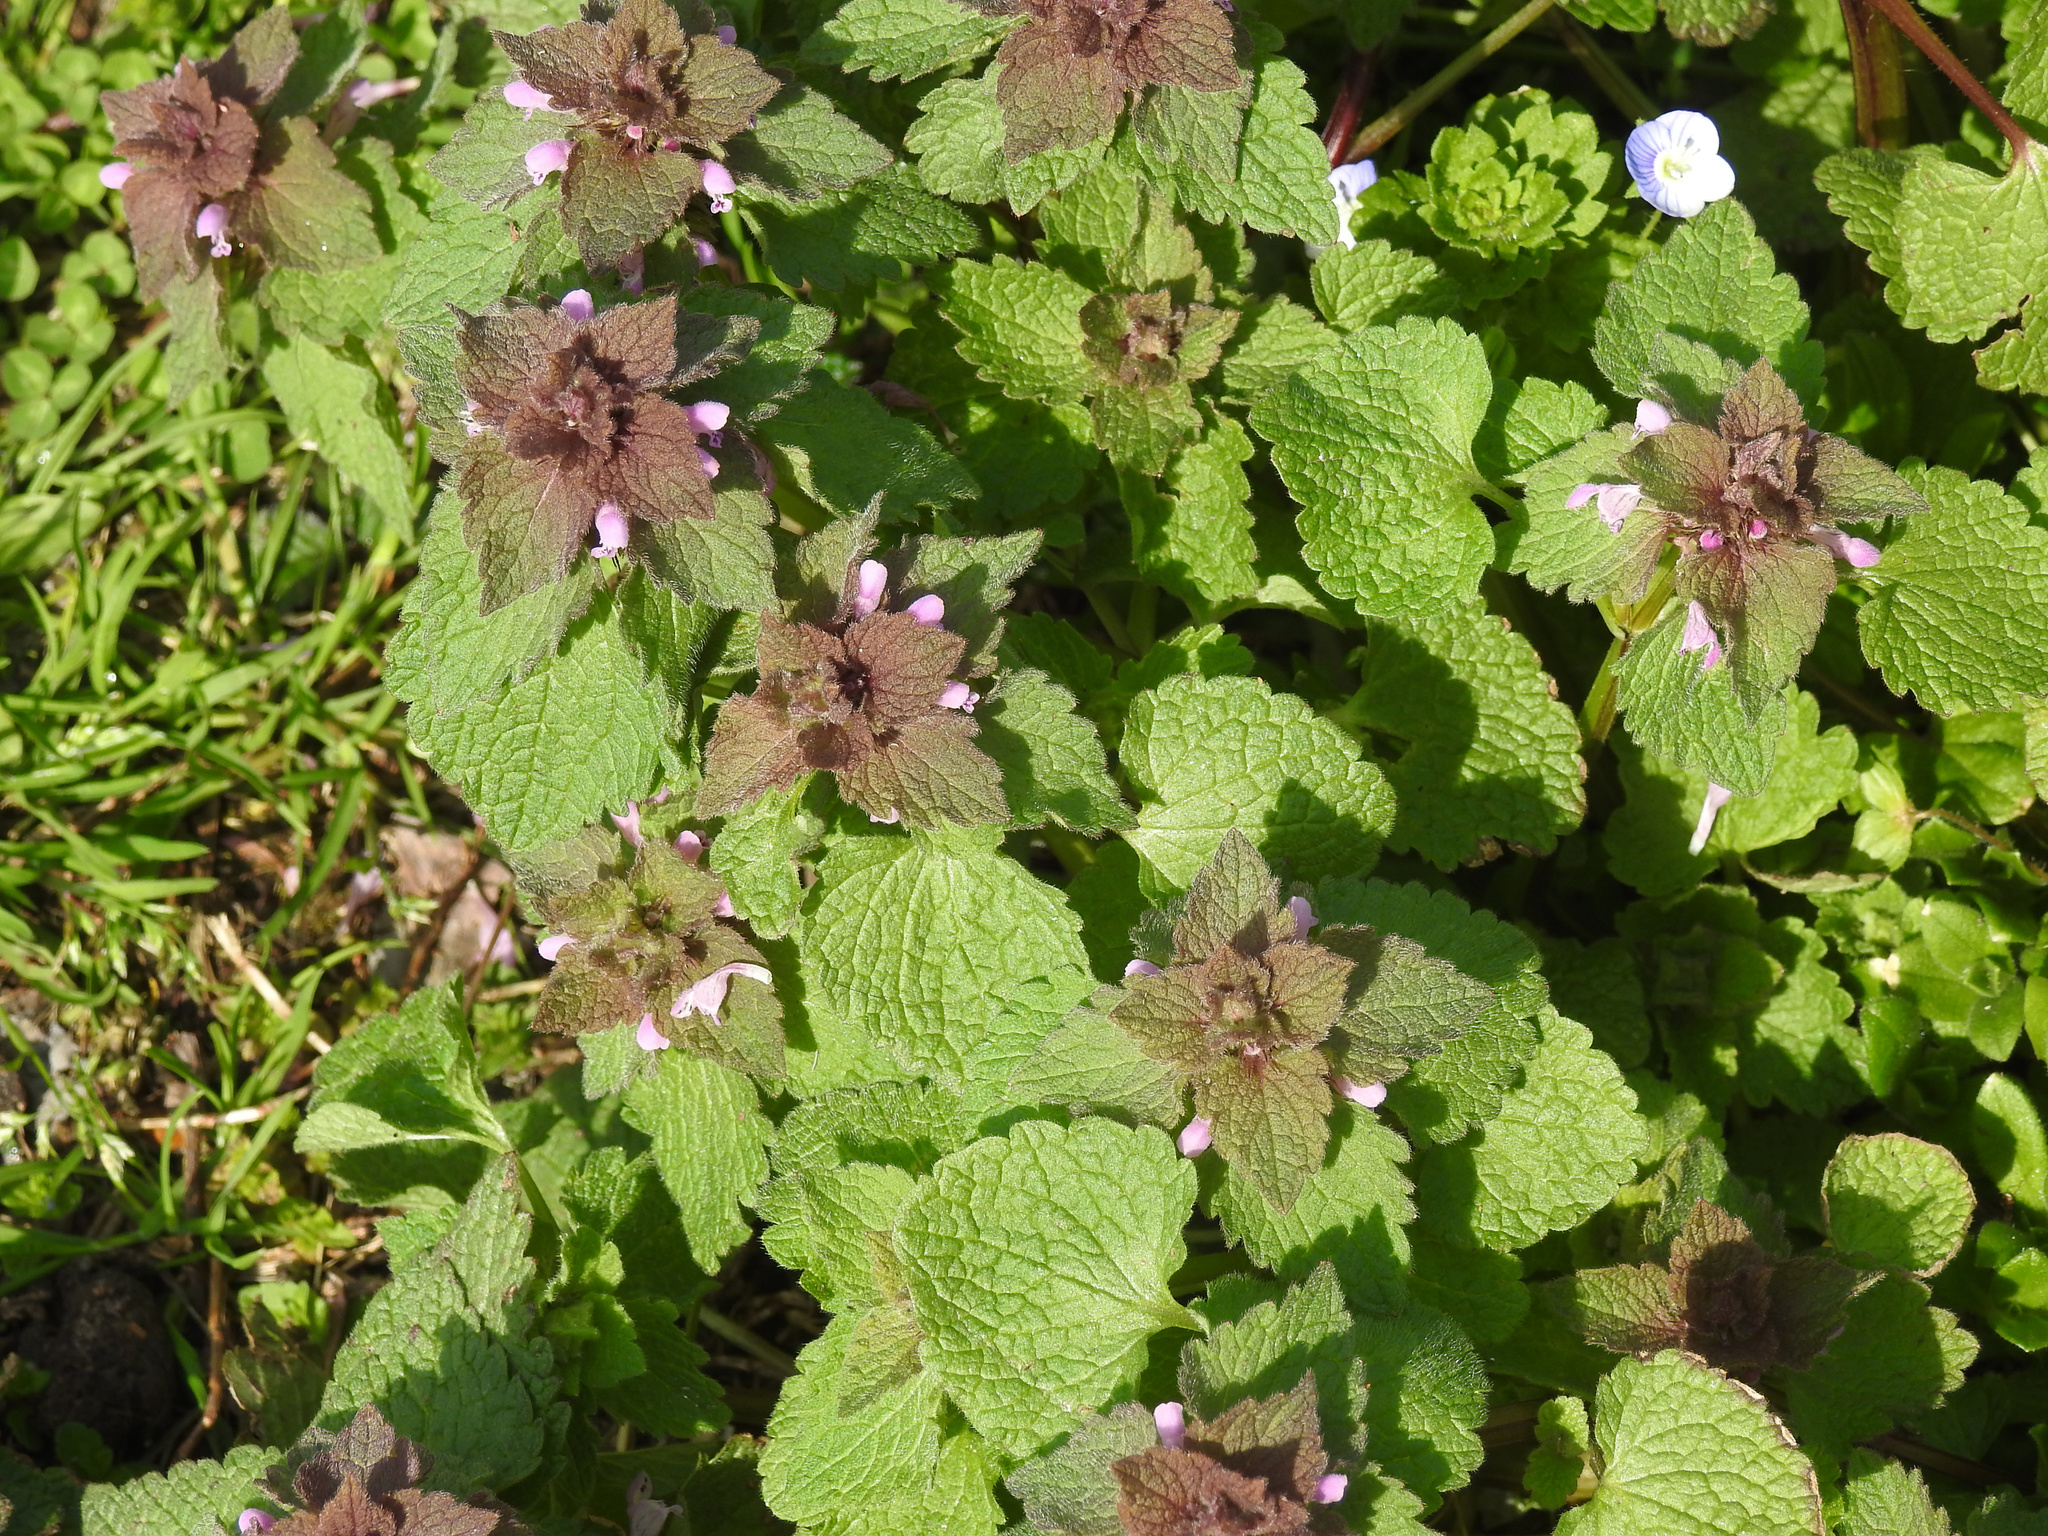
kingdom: Plantae
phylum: Tracheophyta
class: Magnoliopsida
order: Lamiales
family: Lamiaceae
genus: Lamium
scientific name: Lamium purpureum
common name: Red dead-nettle
